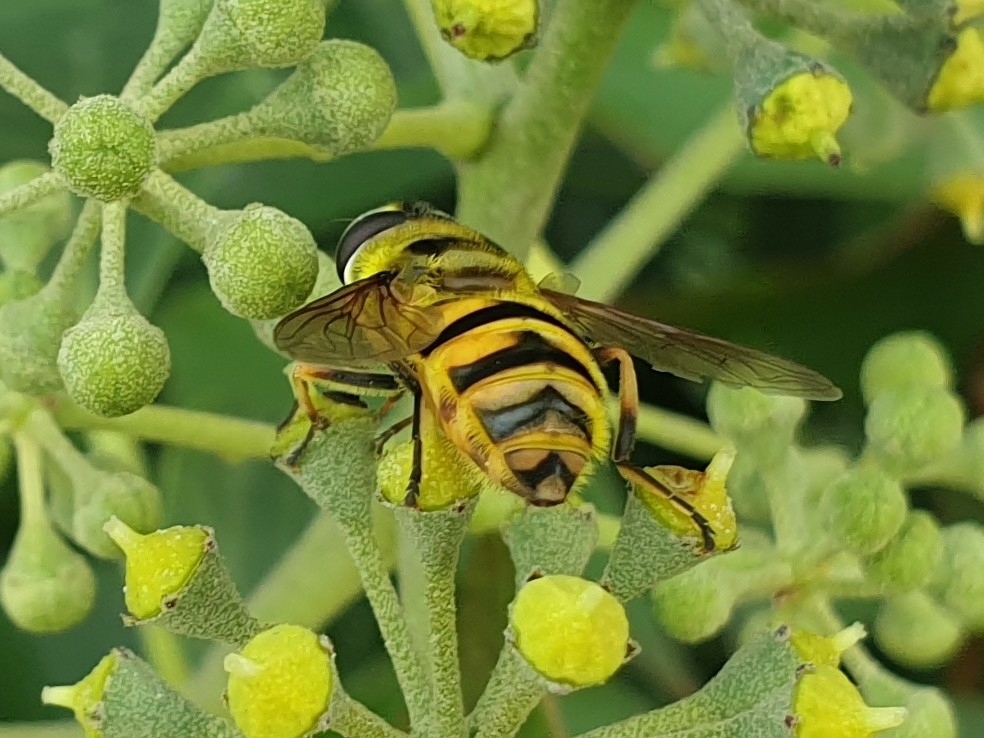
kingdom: Animalia
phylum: Arthropoda
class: Insecta
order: Diptera
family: Syrphidae
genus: Myathropa
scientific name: Myathropa florea
